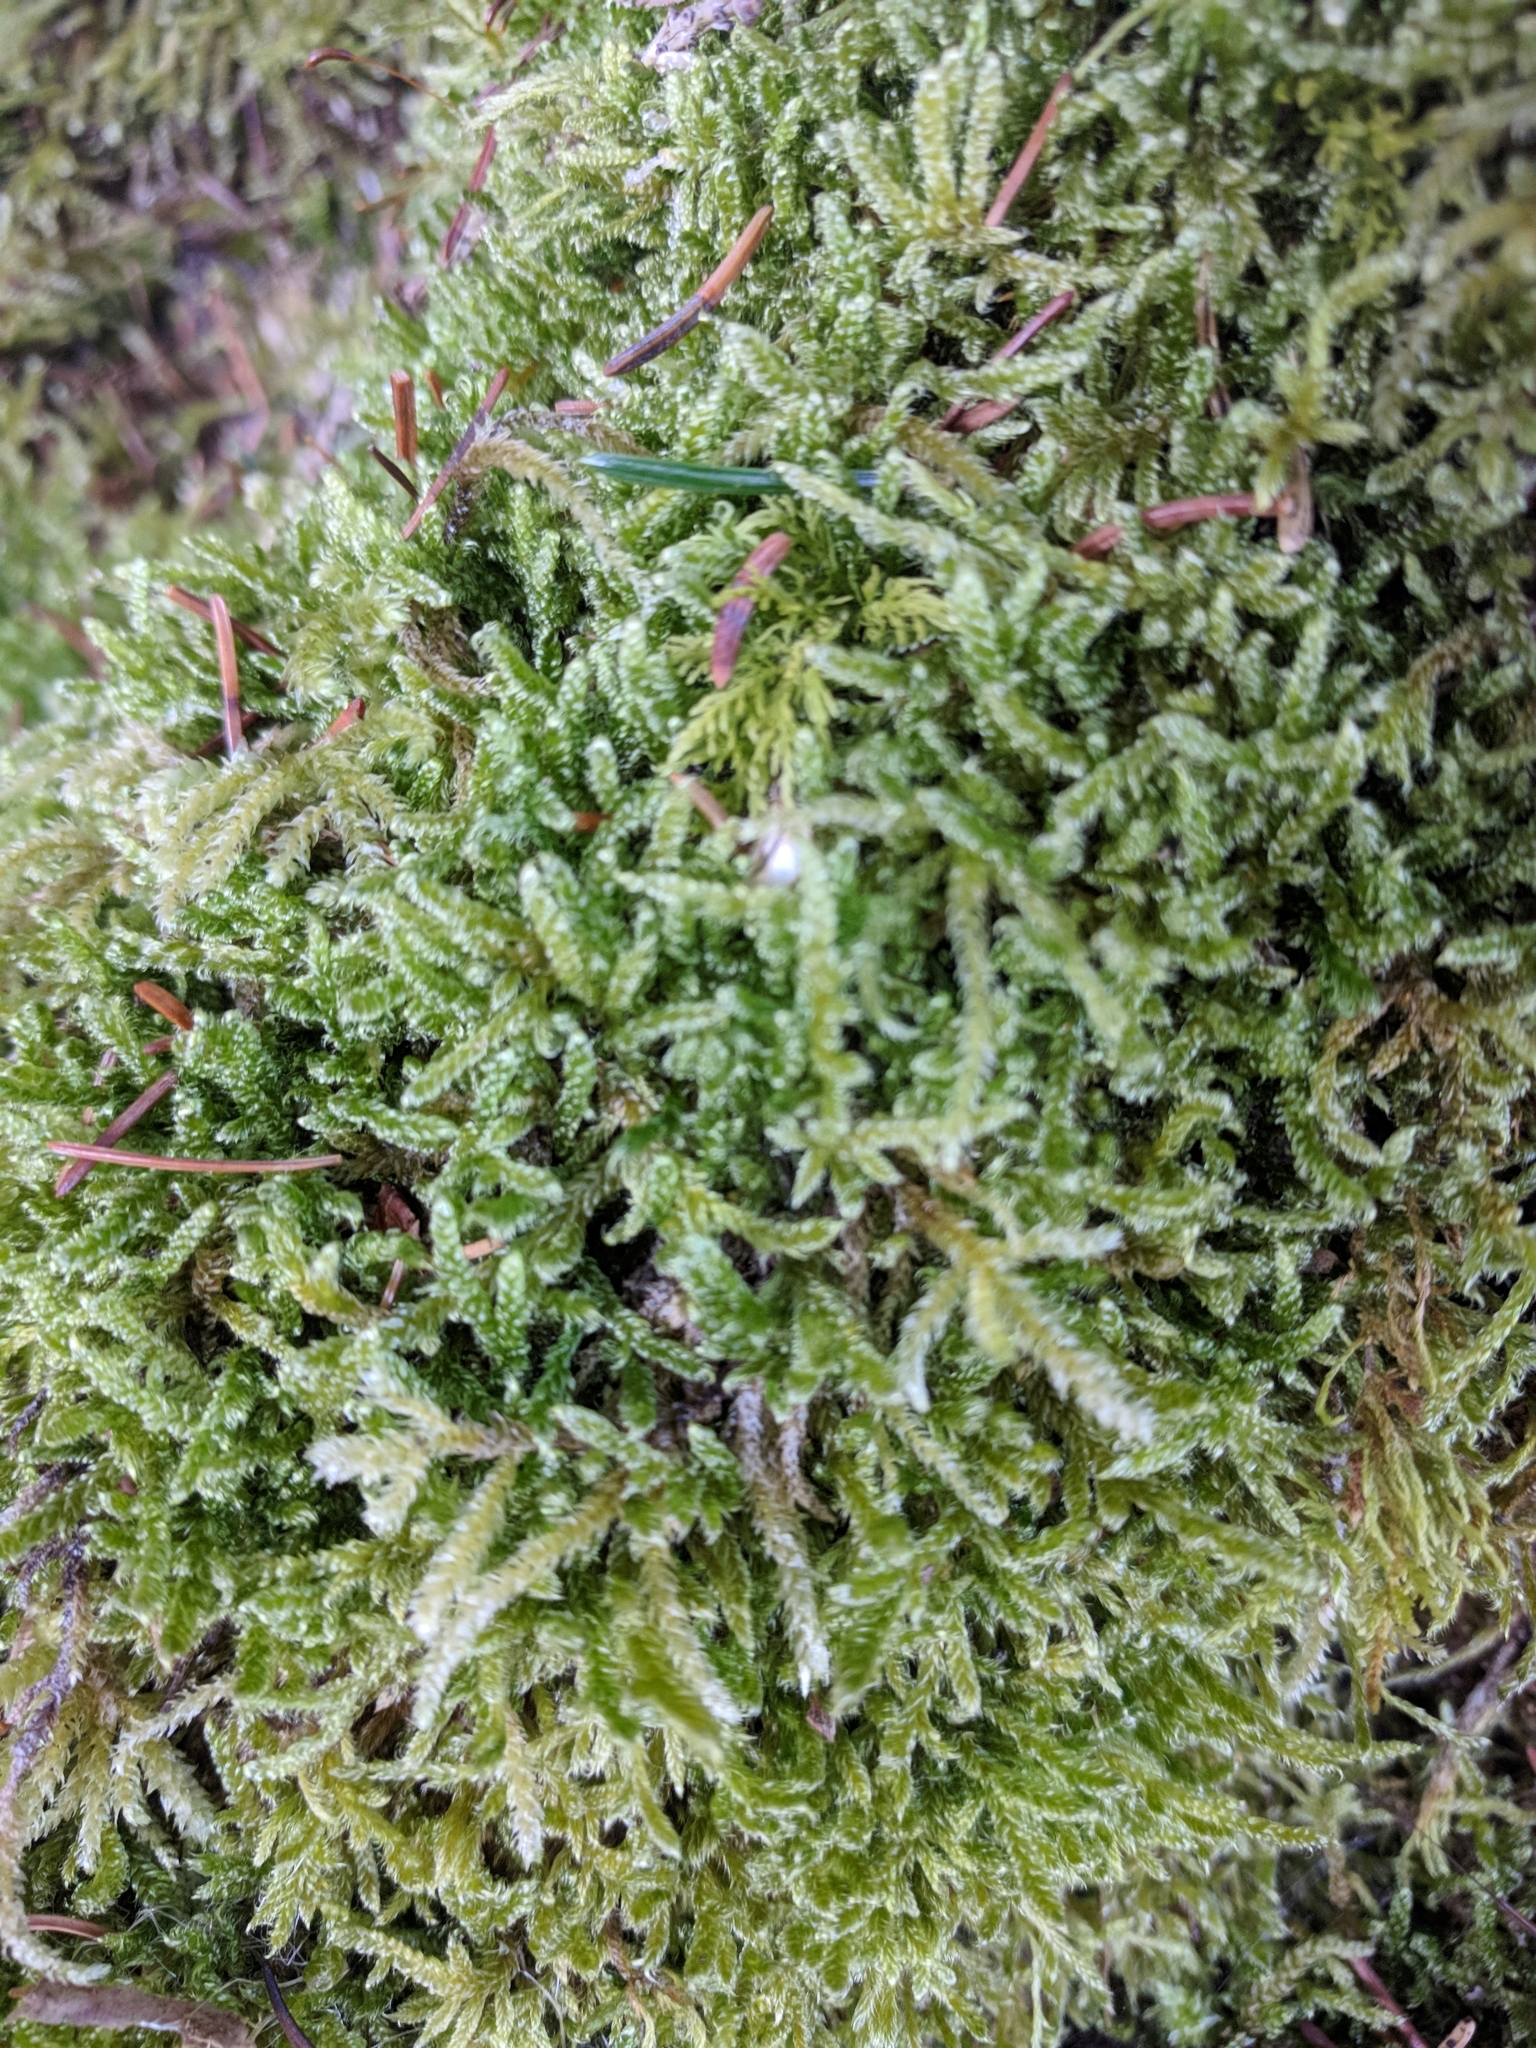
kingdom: Plantae
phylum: Bryophyta
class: Bryopsida
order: Hypnales
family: Hypnaceae
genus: Hypnum
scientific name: Hypnum cupressiforme
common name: Cypress-leaved plait-moss
